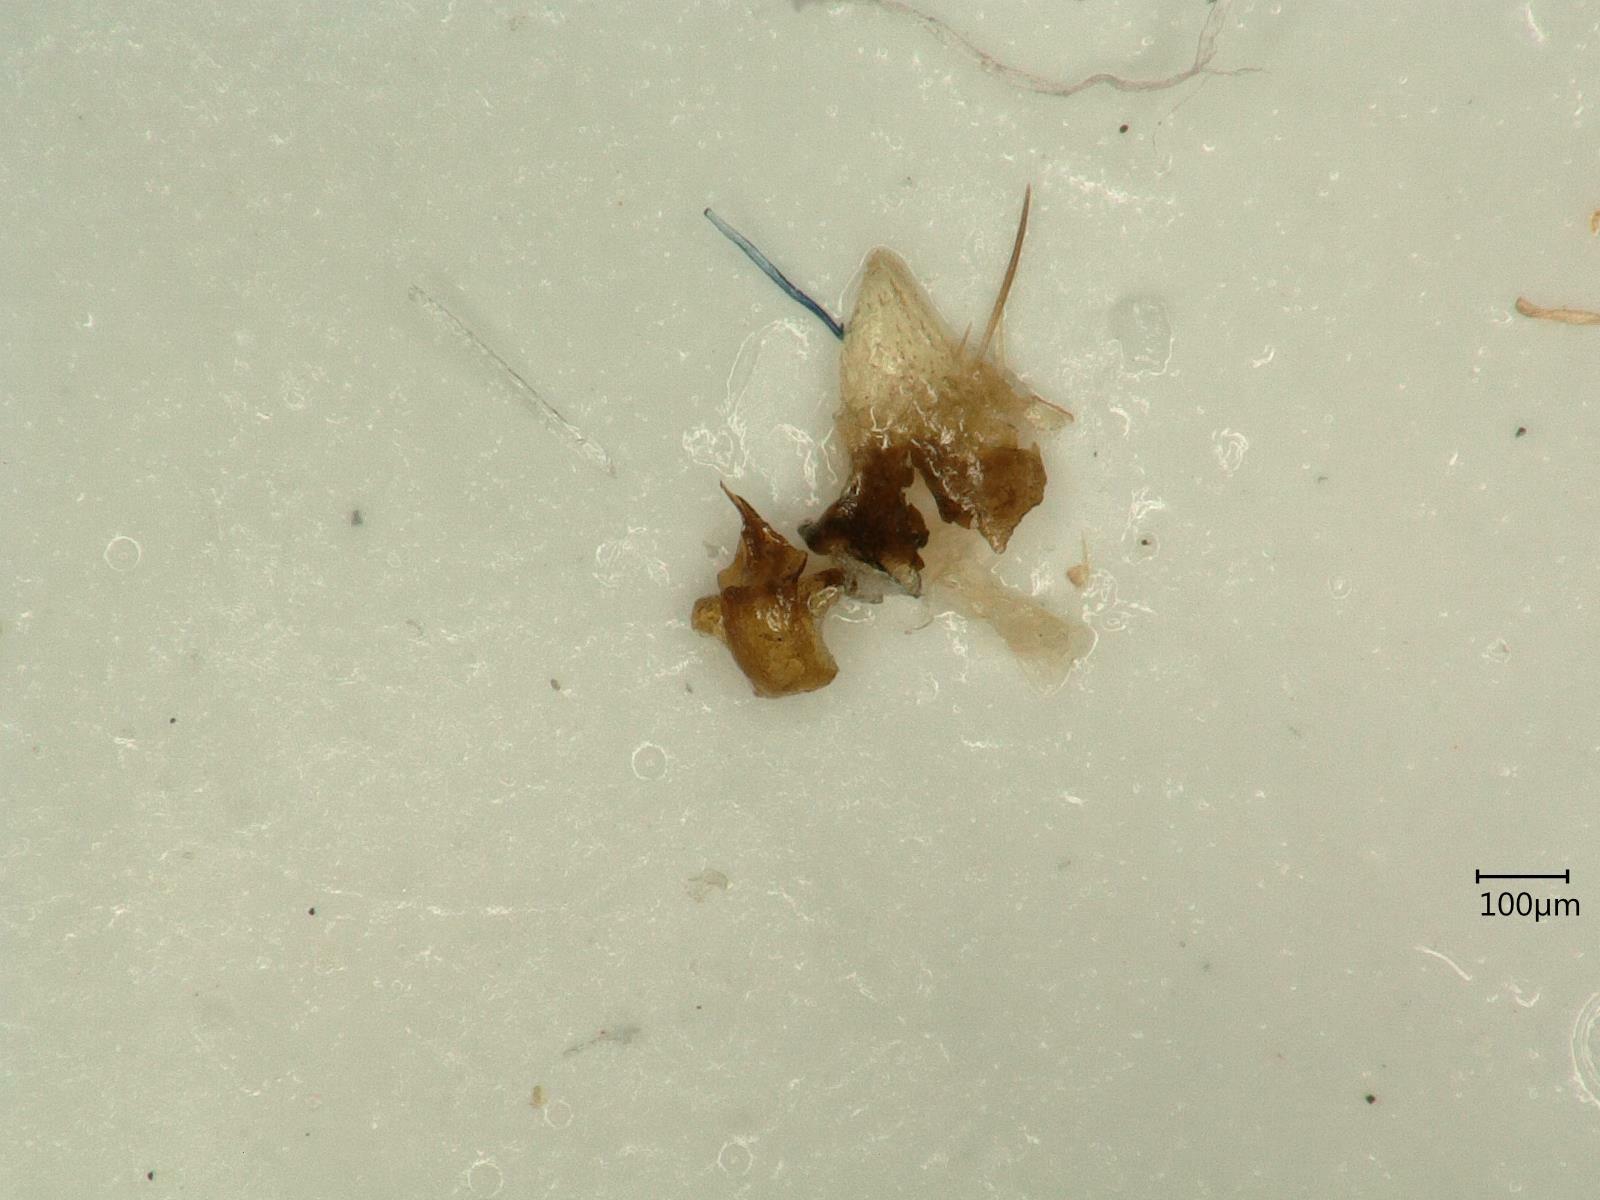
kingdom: Animalia
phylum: Arthropoda
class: Insecta
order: Hemiptera
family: Cicadellidae
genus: Jassargus
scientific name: Jassargus distinguendus
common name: Leafhopper
